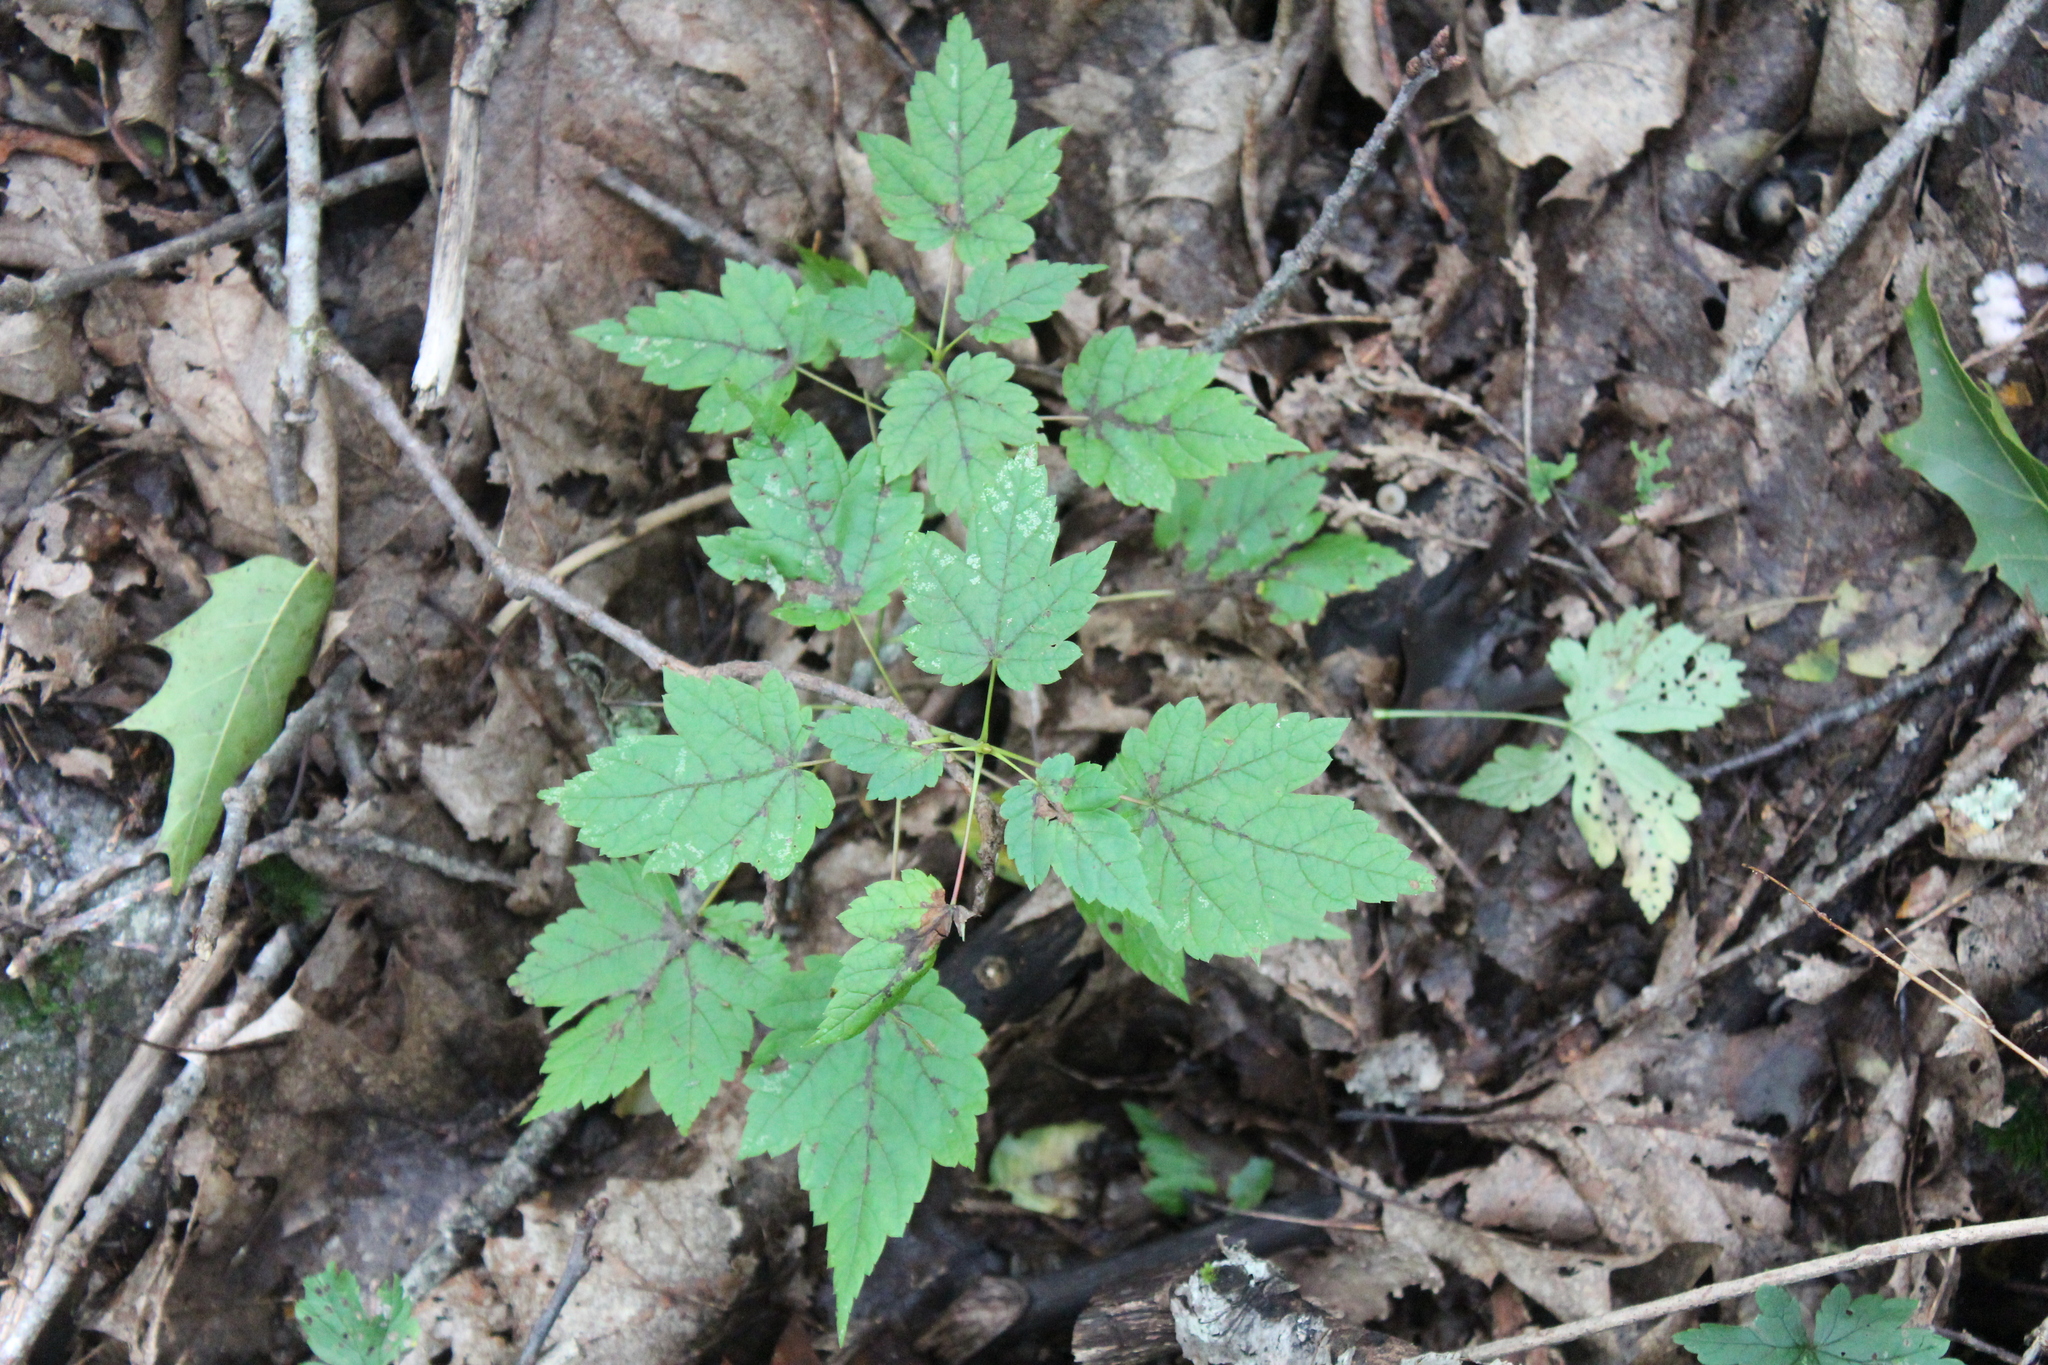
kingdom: Plantae
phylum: Tracheophyta
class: Magnoliopsida
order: Sapindales
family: Sapindaceae
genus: Acer
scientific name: Acer spicatum
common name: Mountain maple
